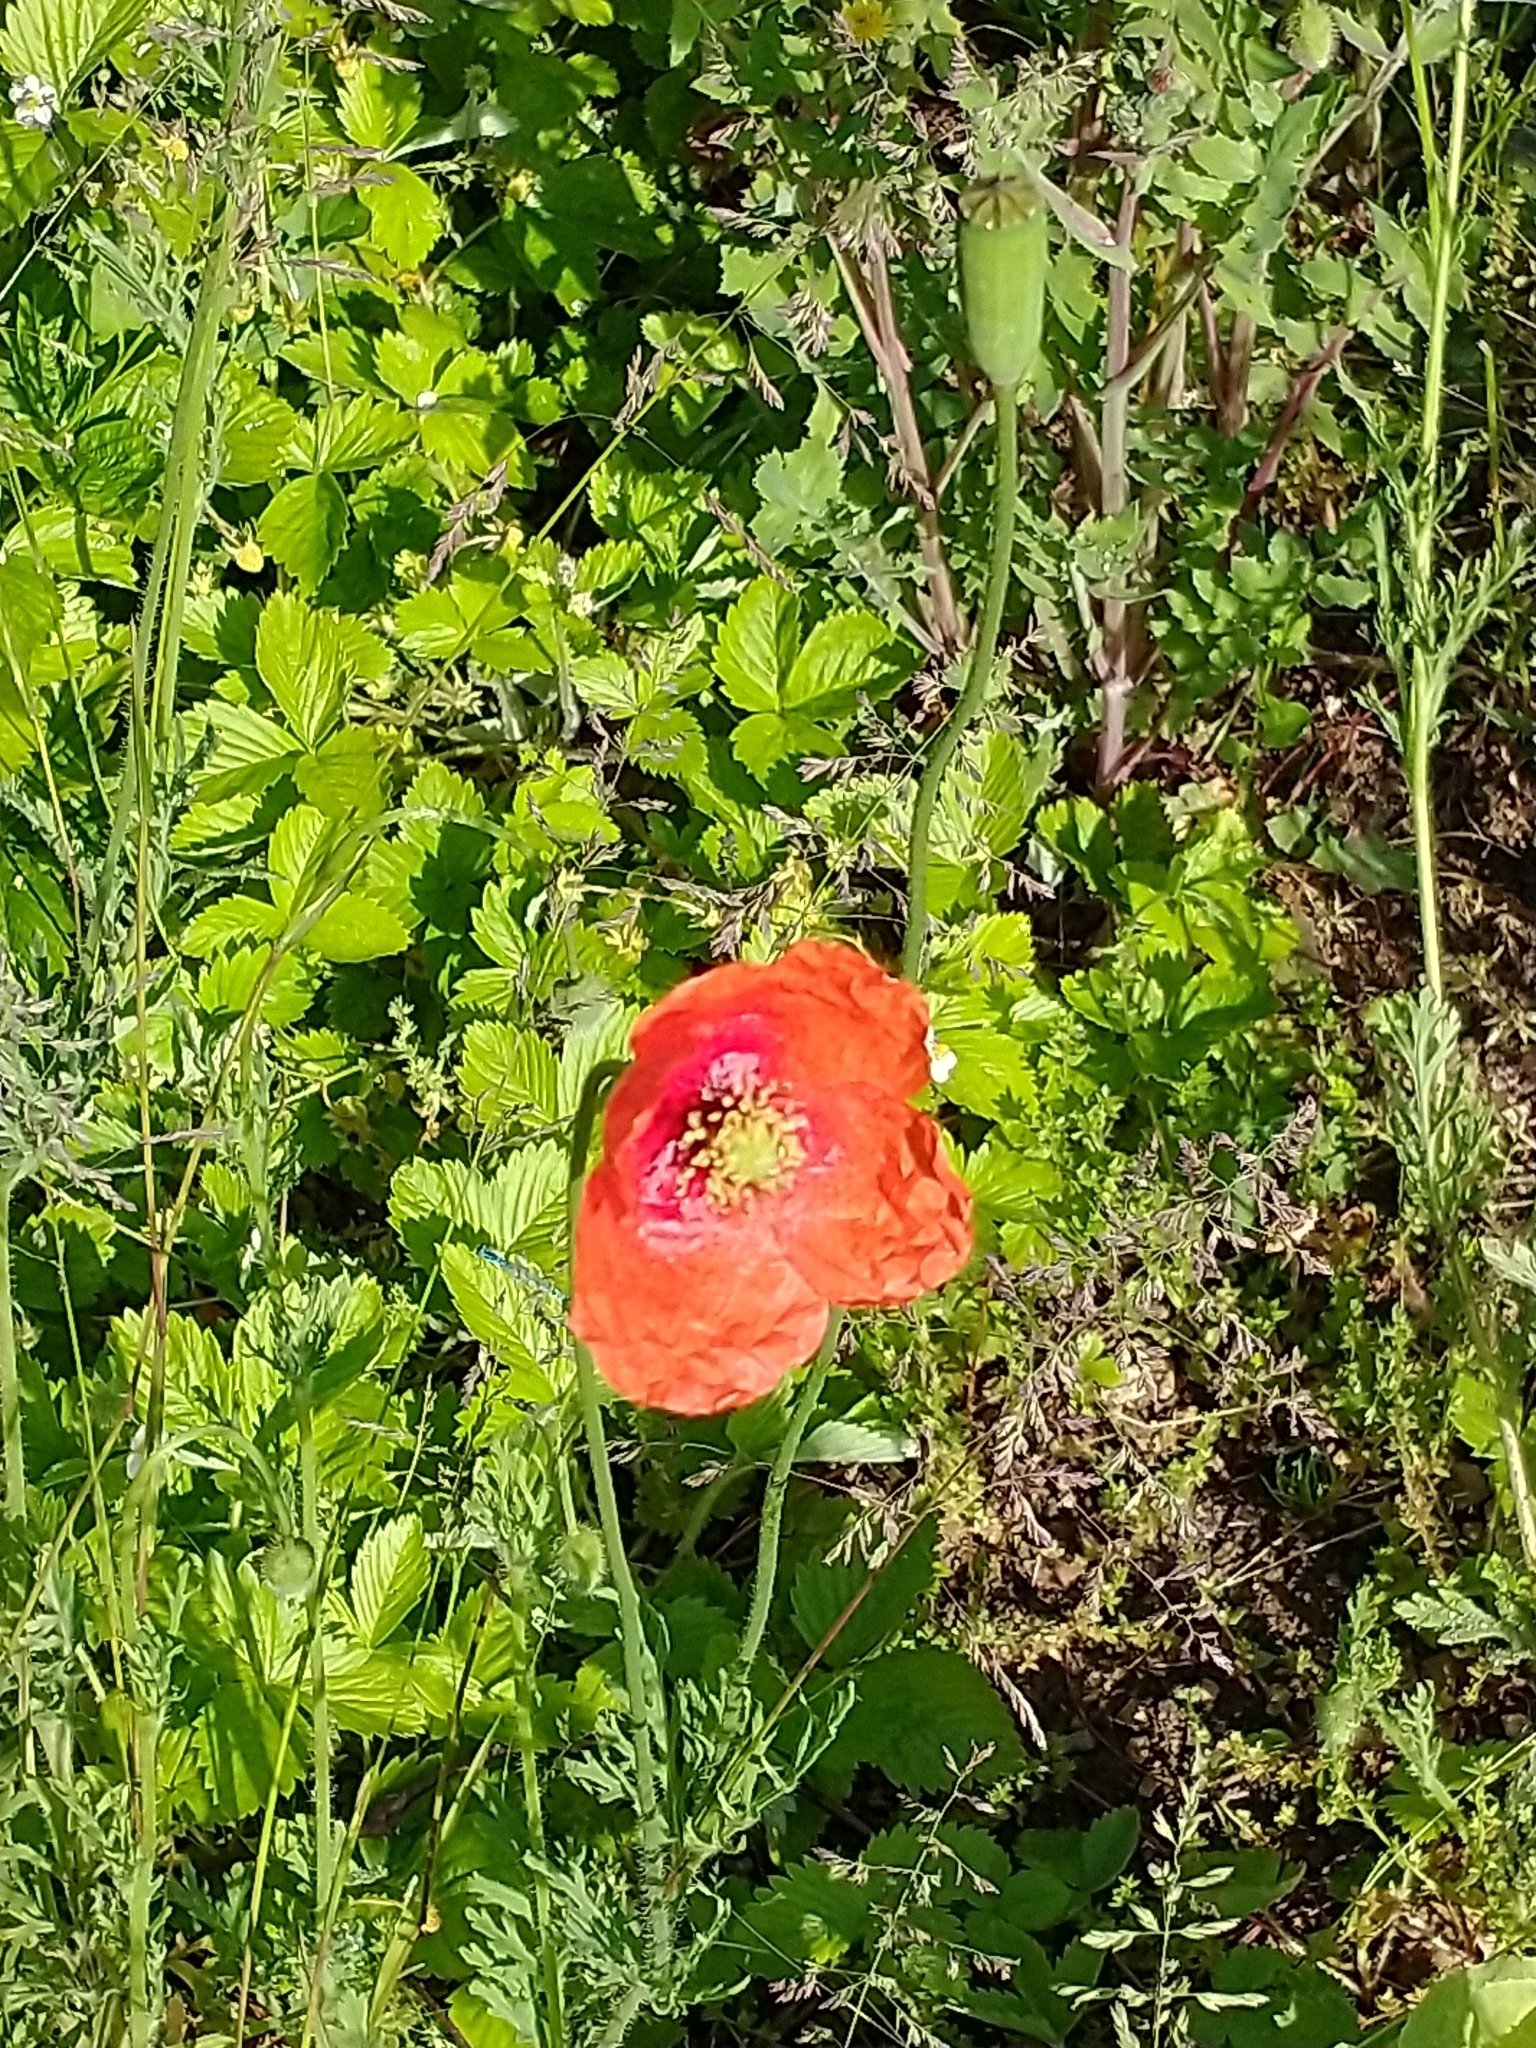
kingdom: Plantae
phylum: Tracheophyta
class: Magnoliopsida
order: Ranunculales
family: Papaveraceae
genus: Papaver
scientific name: Papaver dubium
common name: Long-headed poppy
